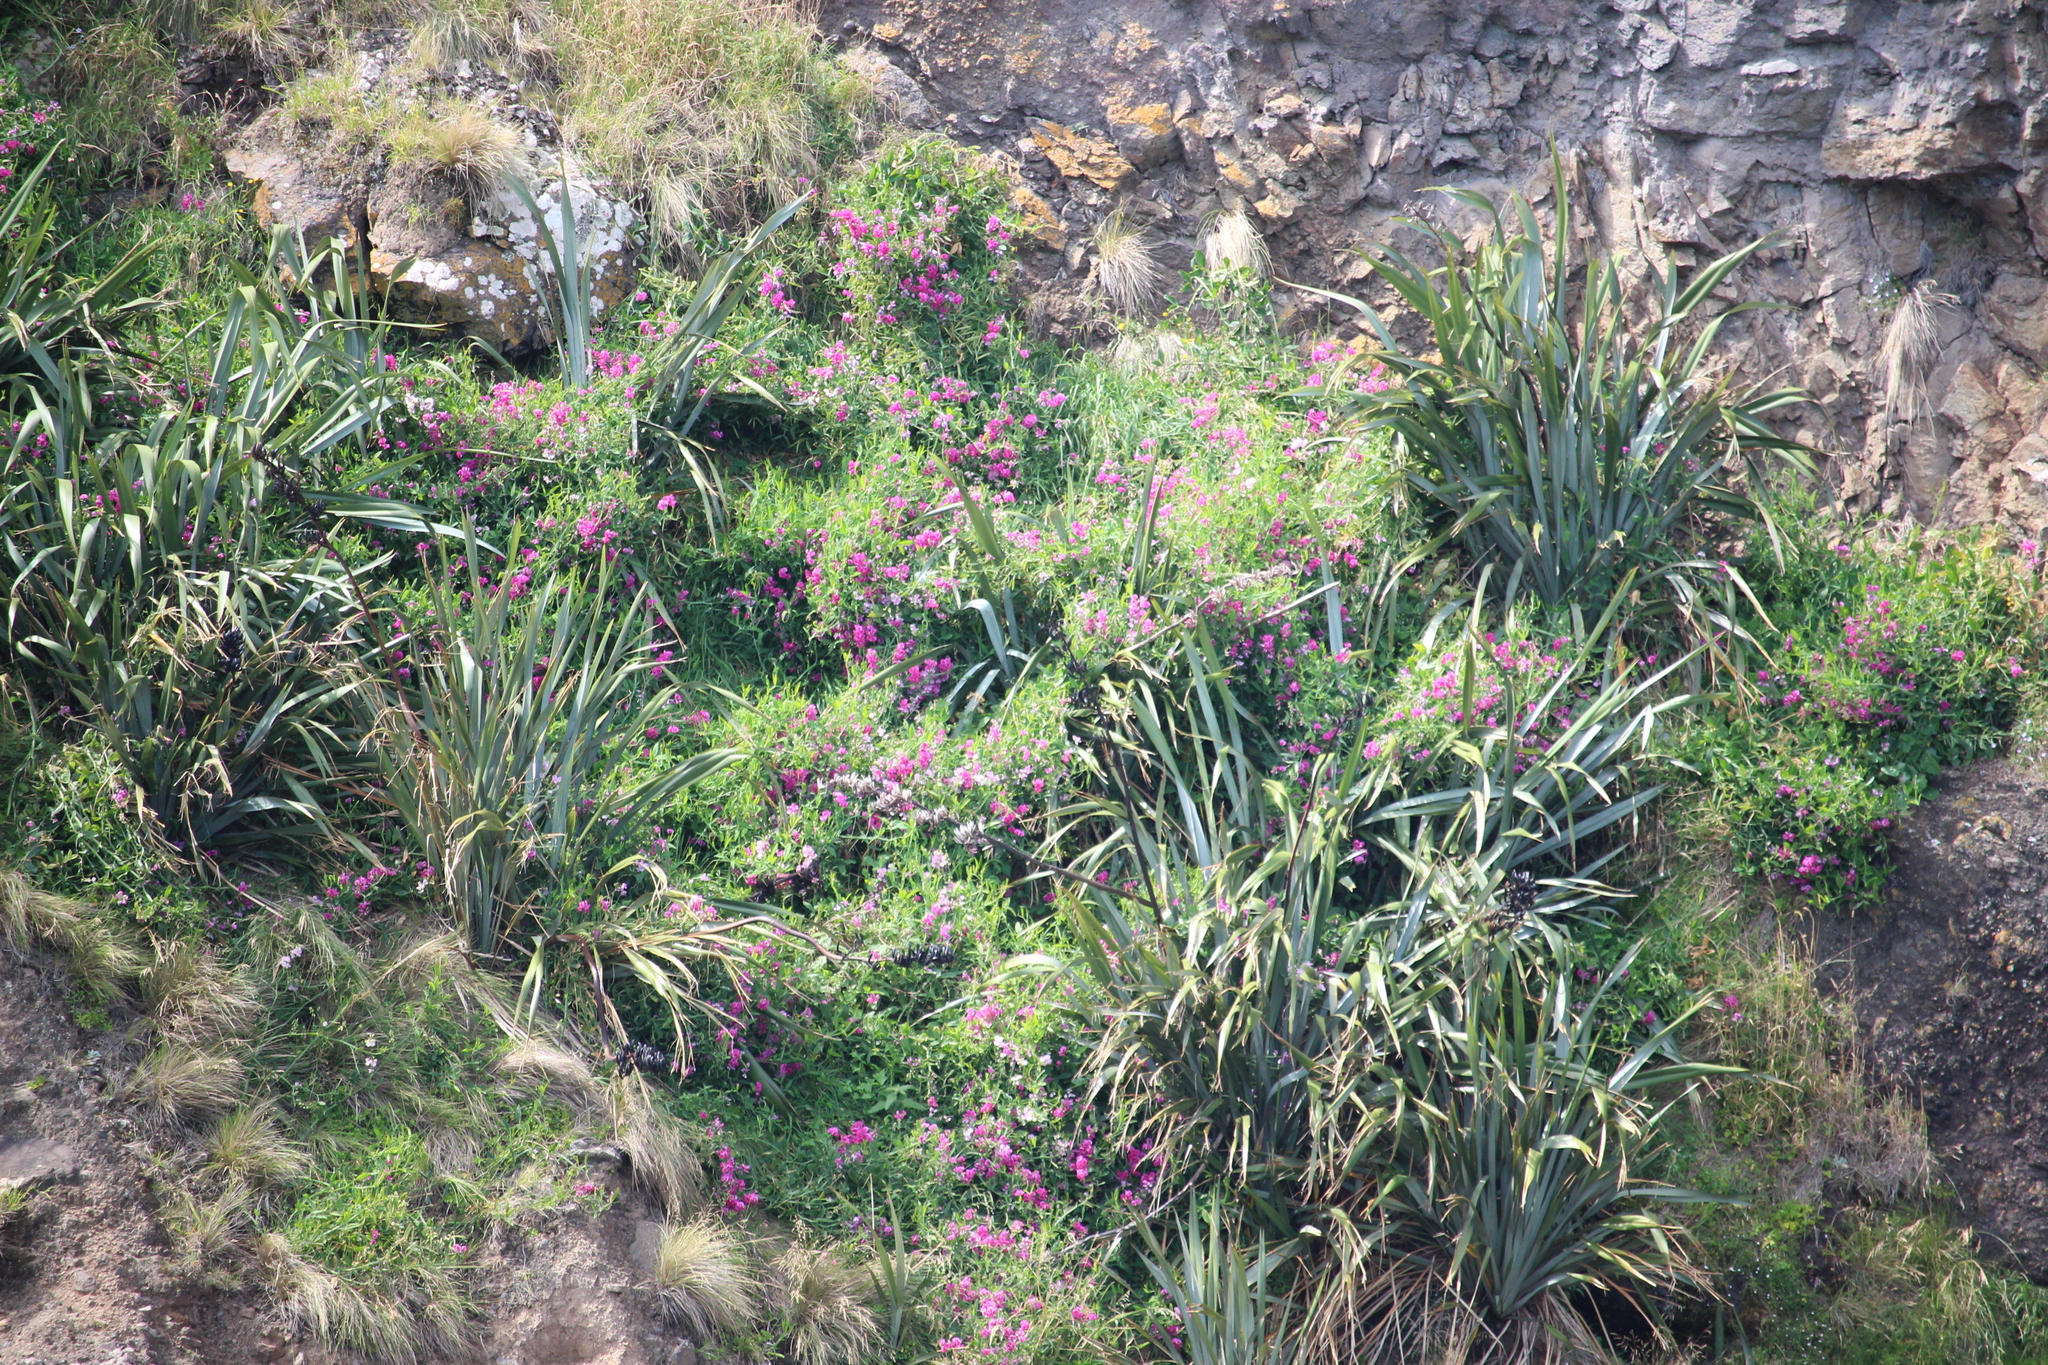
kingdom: Plantae
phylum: Tracheophyta
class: Magnoliopsida
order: Fabales
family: Fabaceae
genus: Lathyrus
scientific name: Lathyrus latifolius
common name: Perennial pea
